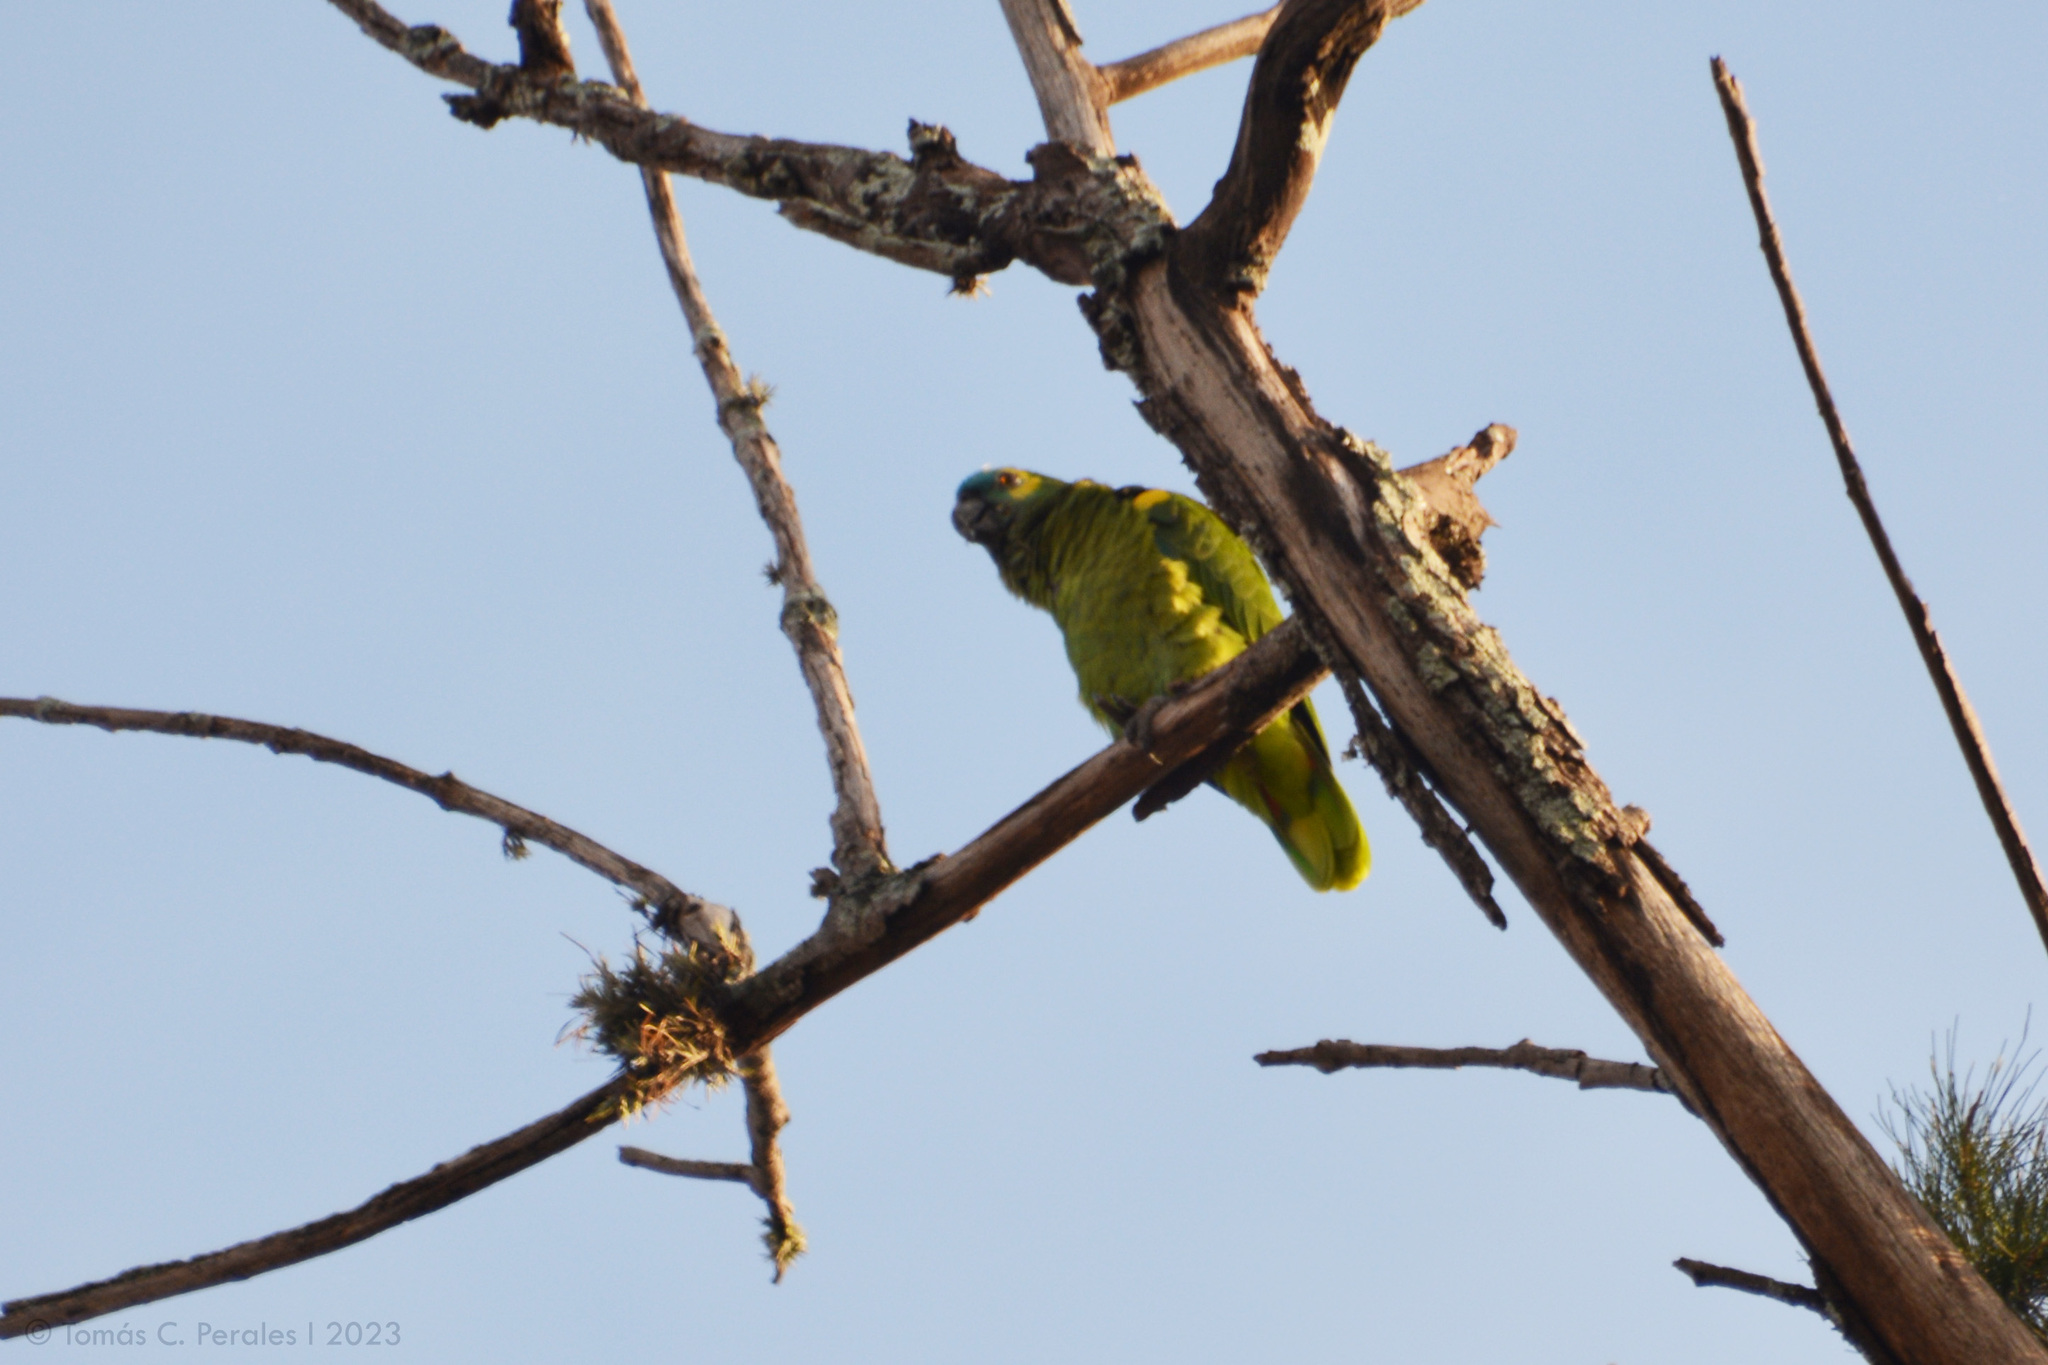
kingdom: Animalia
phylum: Chordata
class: Aves
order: Psittaciformes
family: Psittacidae
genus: Amazona
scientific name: Amazona aestiva
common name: Turquoise-fronted amazon
